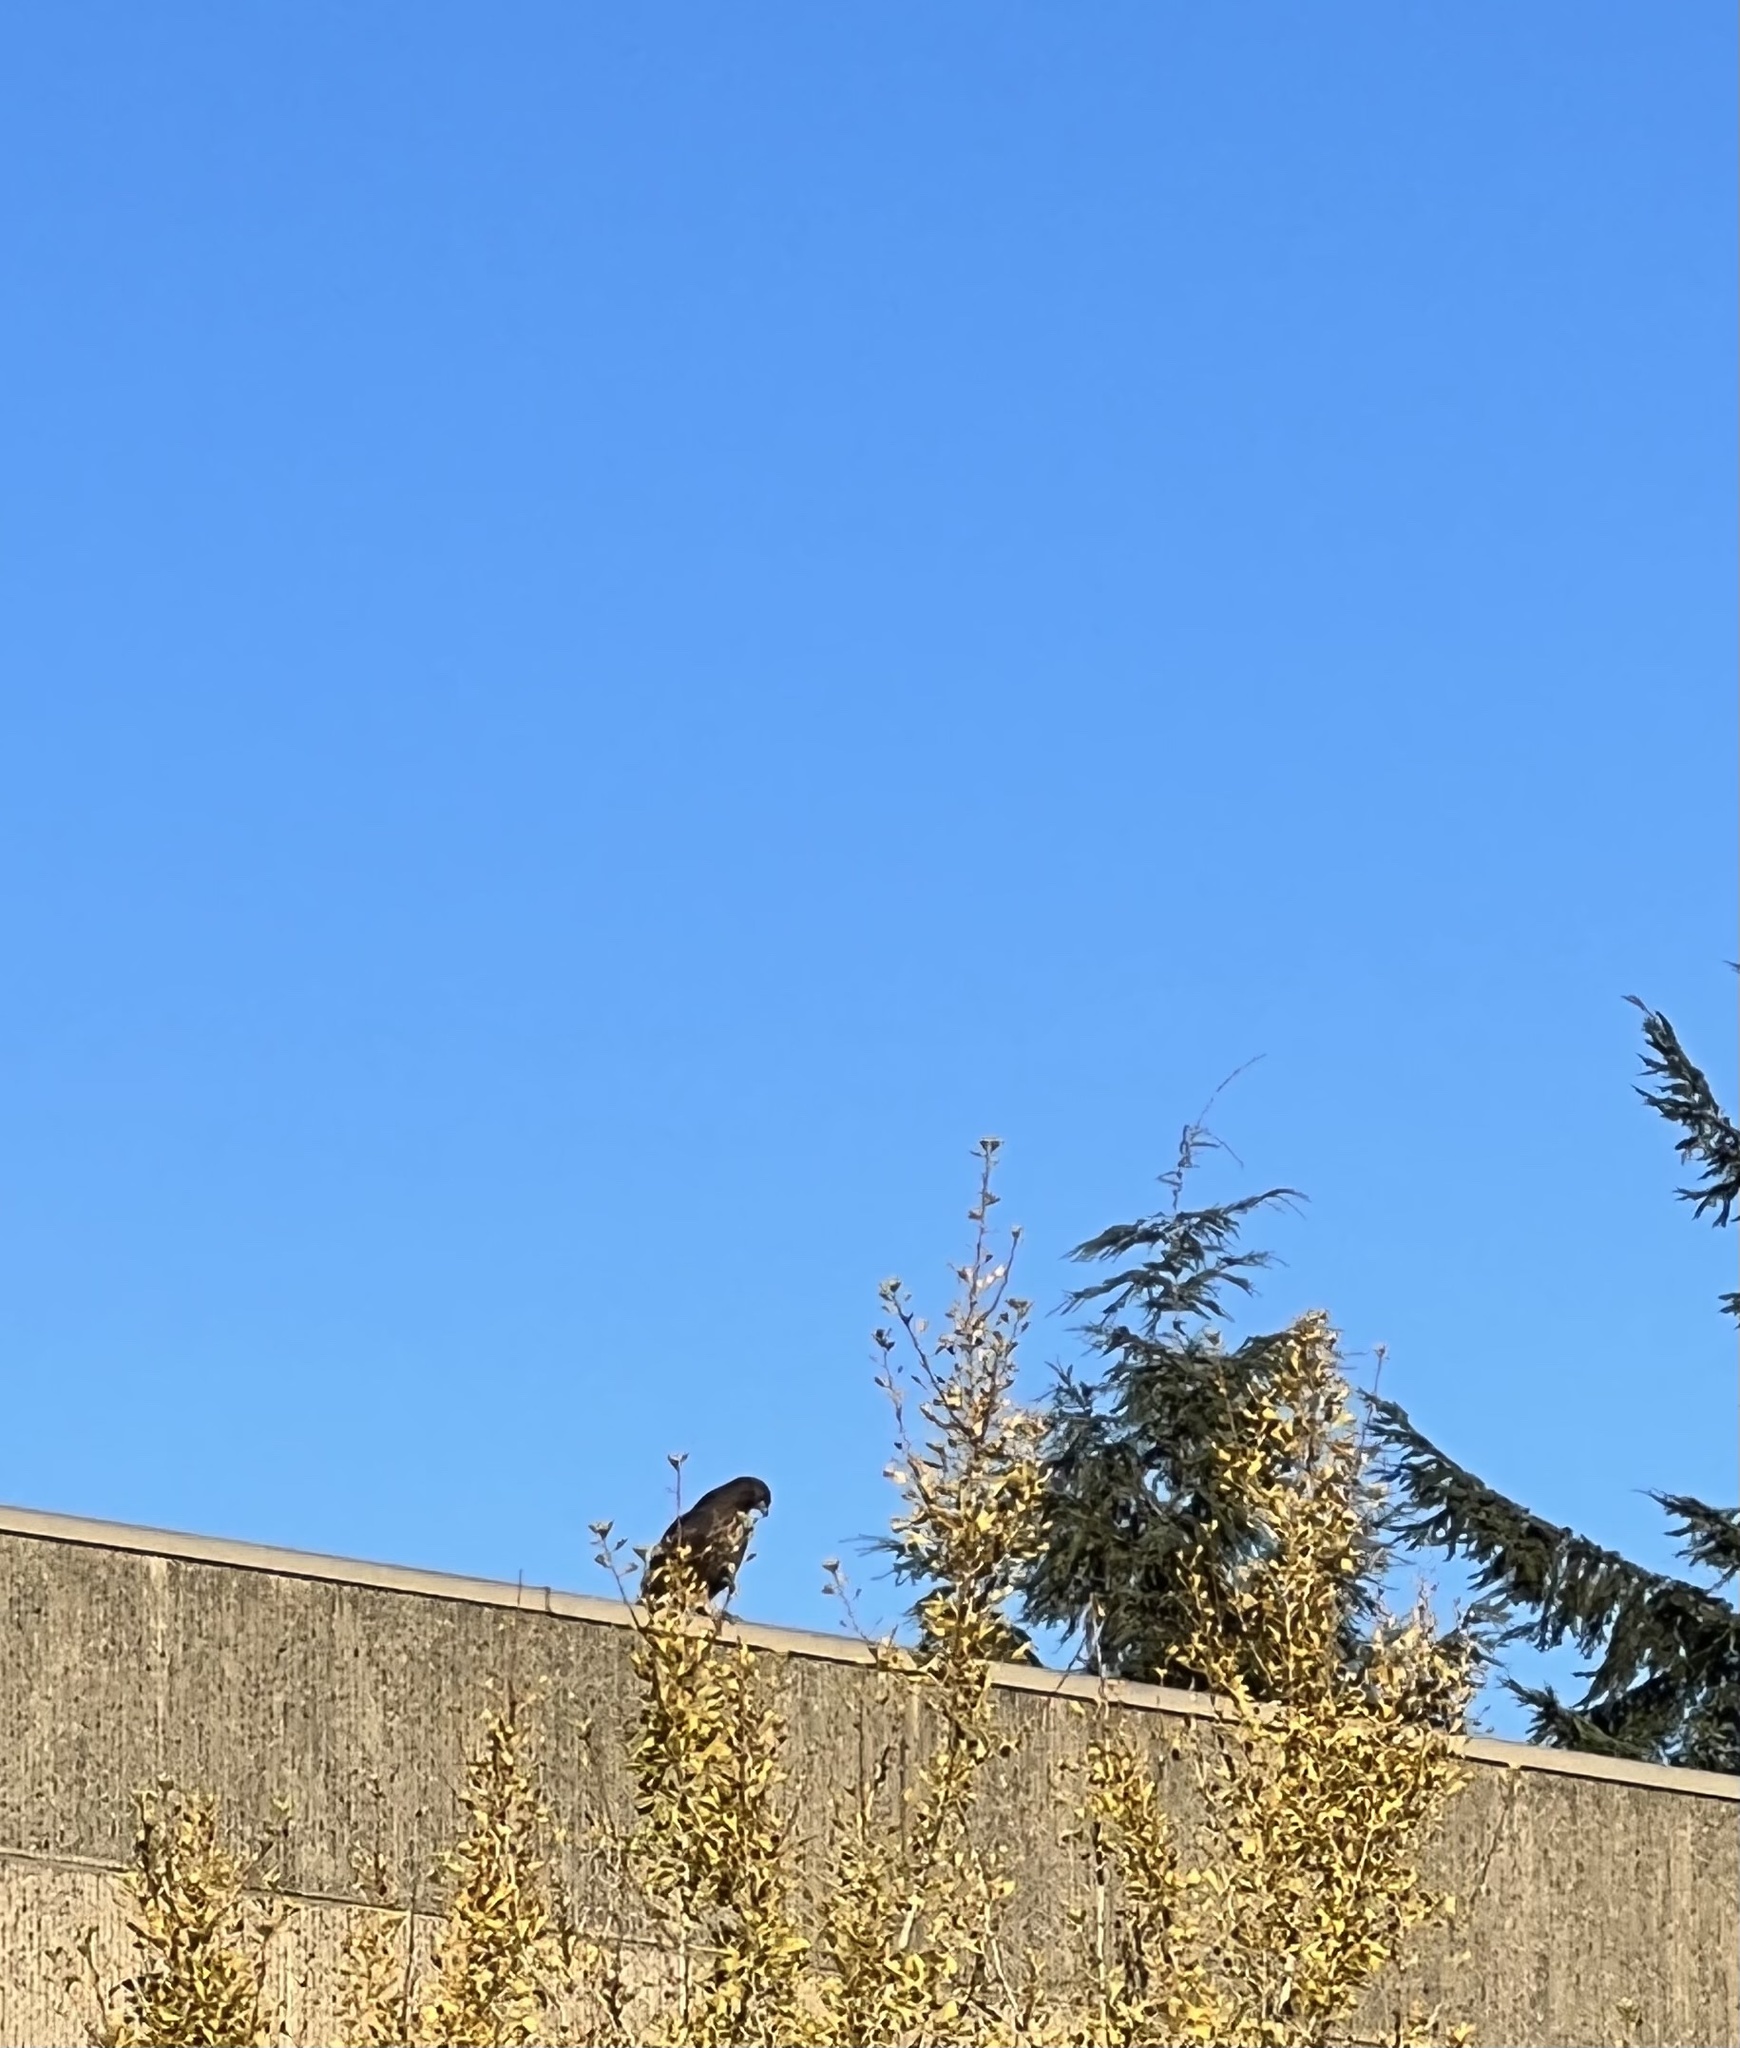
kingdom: Animalia
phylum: Chordata
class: Aves
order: Accipitriformes
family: Accipitridae
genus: Buteo
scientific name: Buteo jamaicensis
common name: Red-tailed hawk
